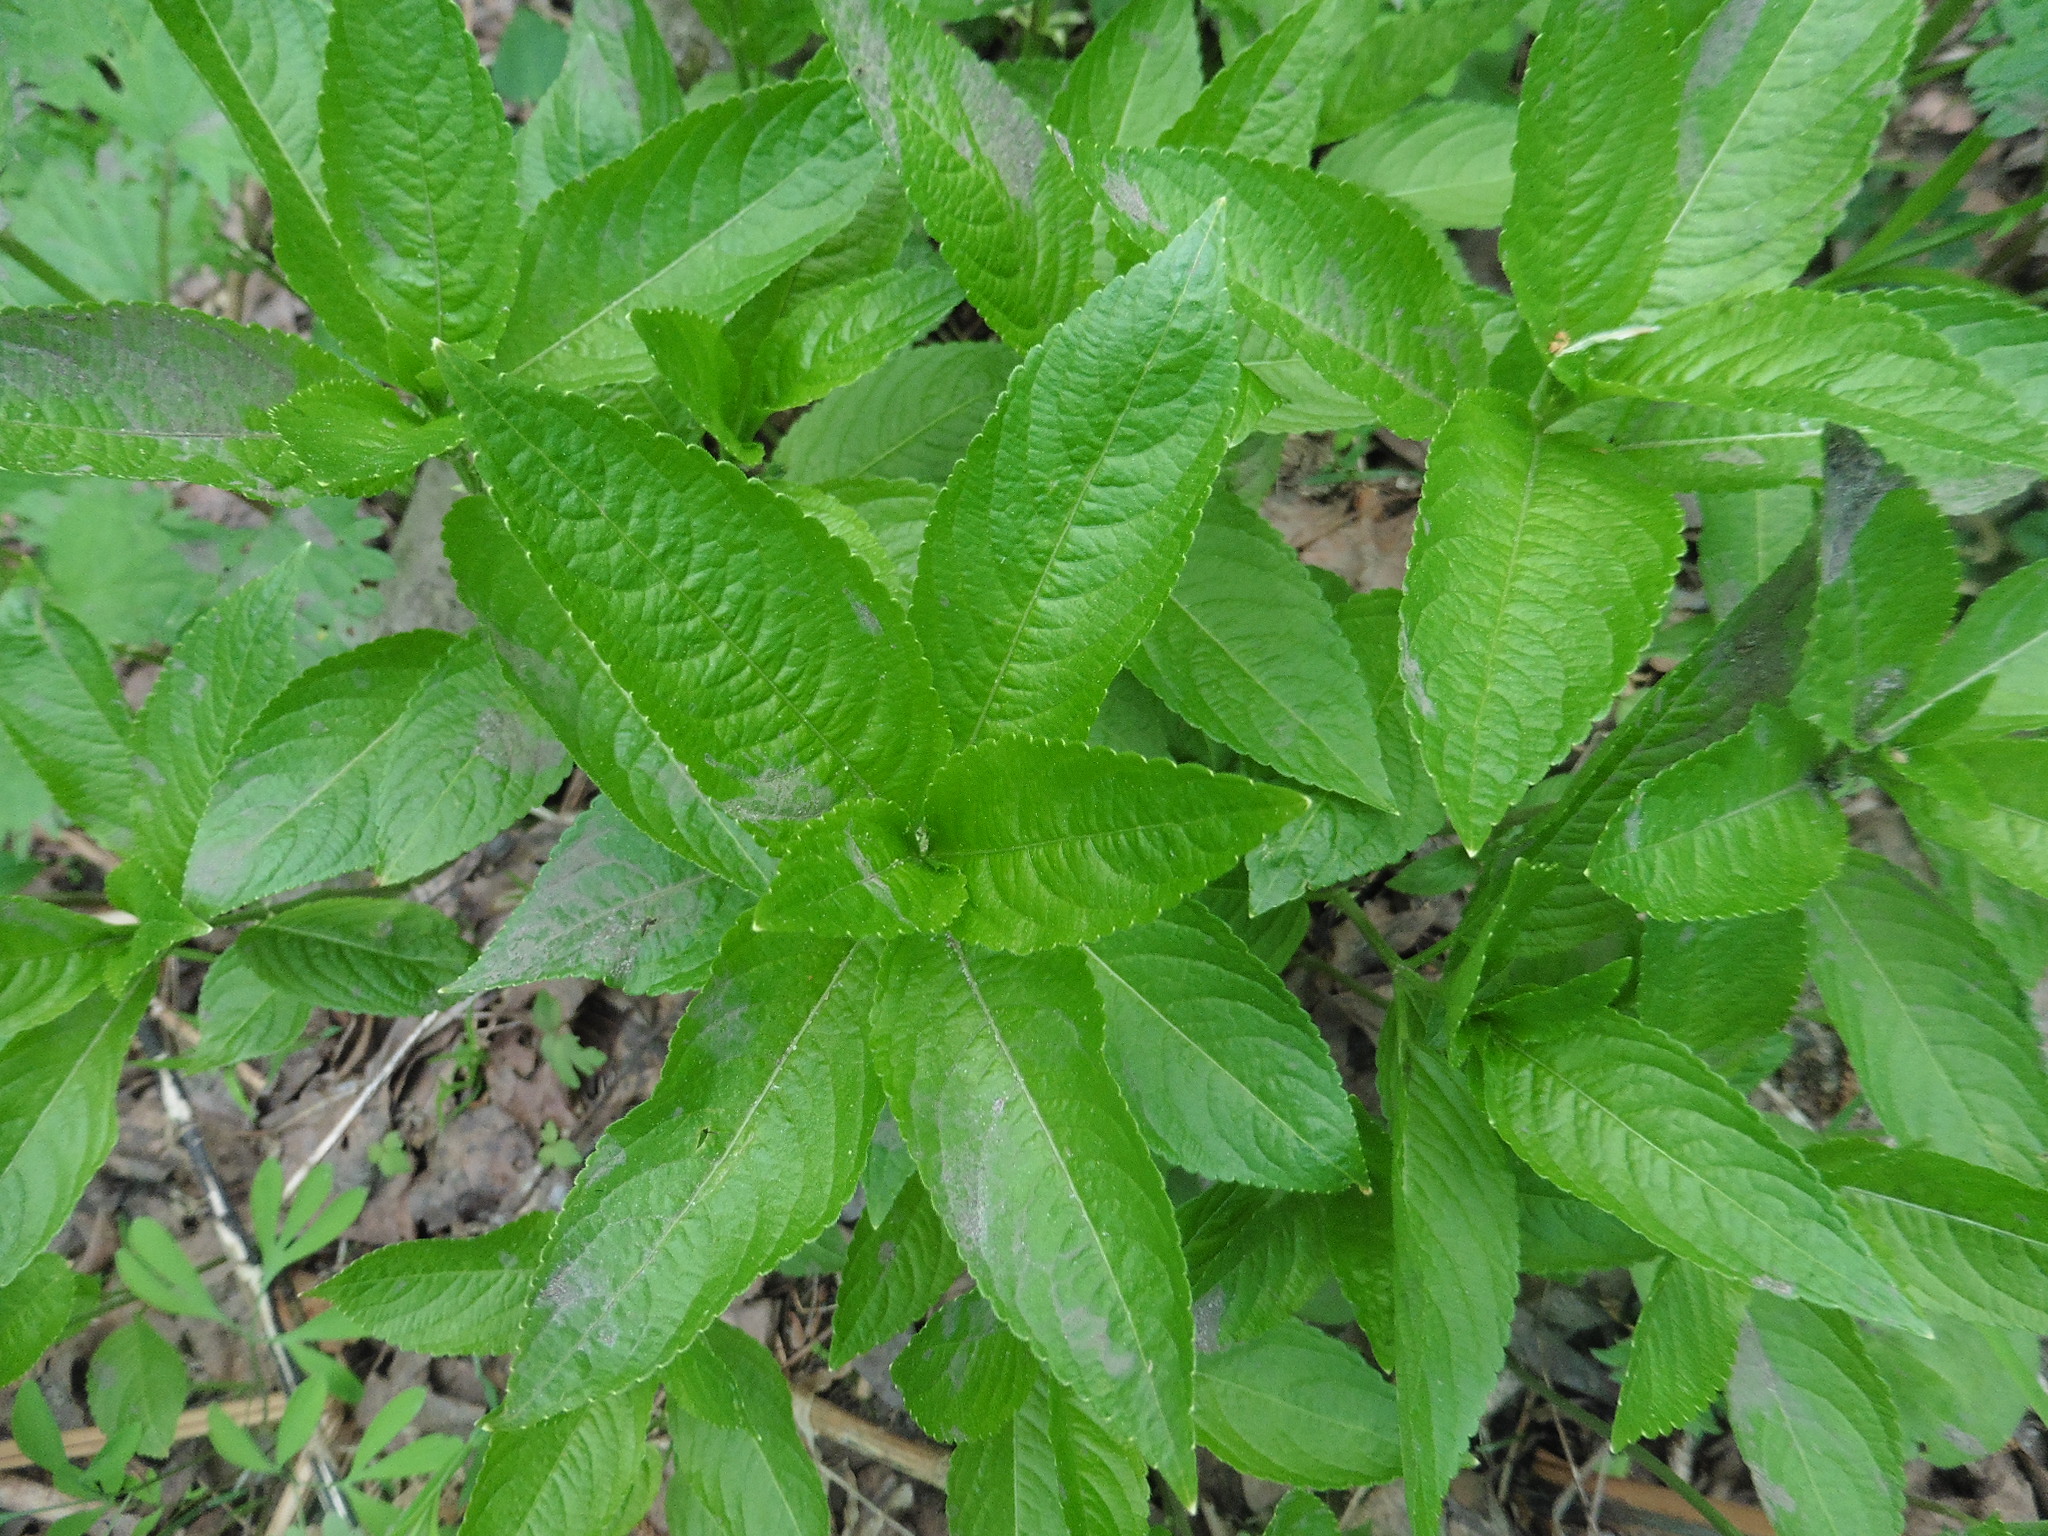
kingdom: Plantae
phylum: Tracheophyta
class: Magnoliopsida
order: Malpighiales
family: Euphorbiaceae
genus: Mercurialis
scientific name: Mercurialis perennis
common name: Dog mercury
